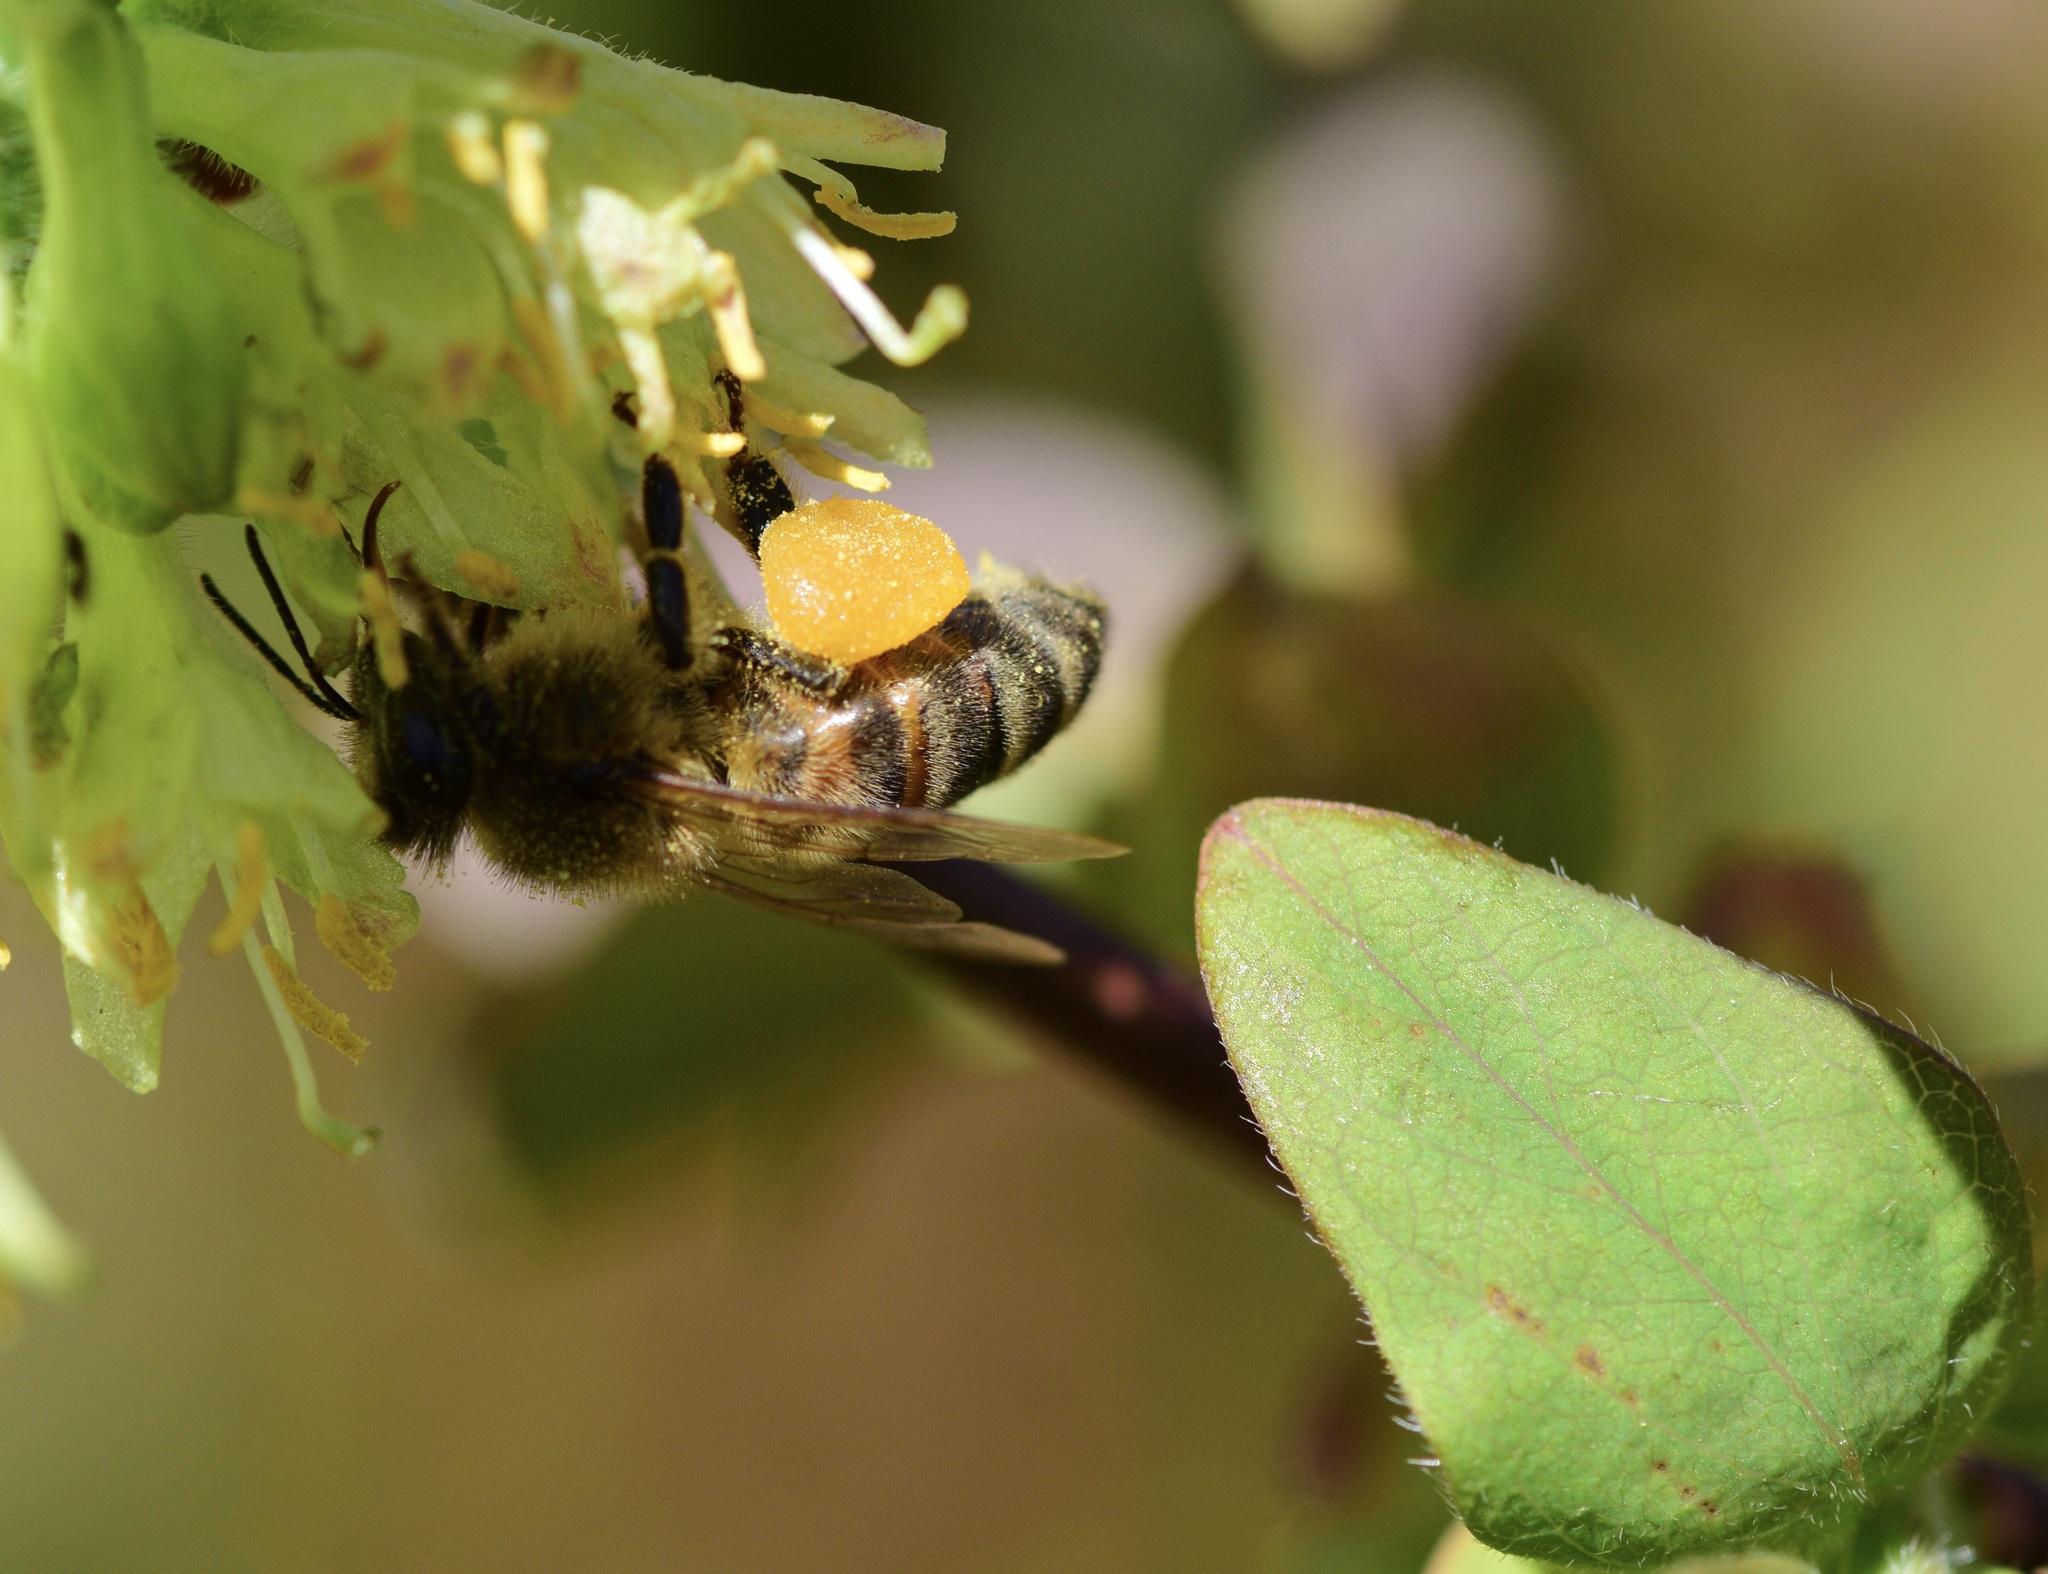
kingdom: Animalia
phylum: Arthropoda
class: Insecta
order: Hymenoptera
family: Apidae
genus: Apis
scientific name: Apis mellifera
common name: Honey bee
